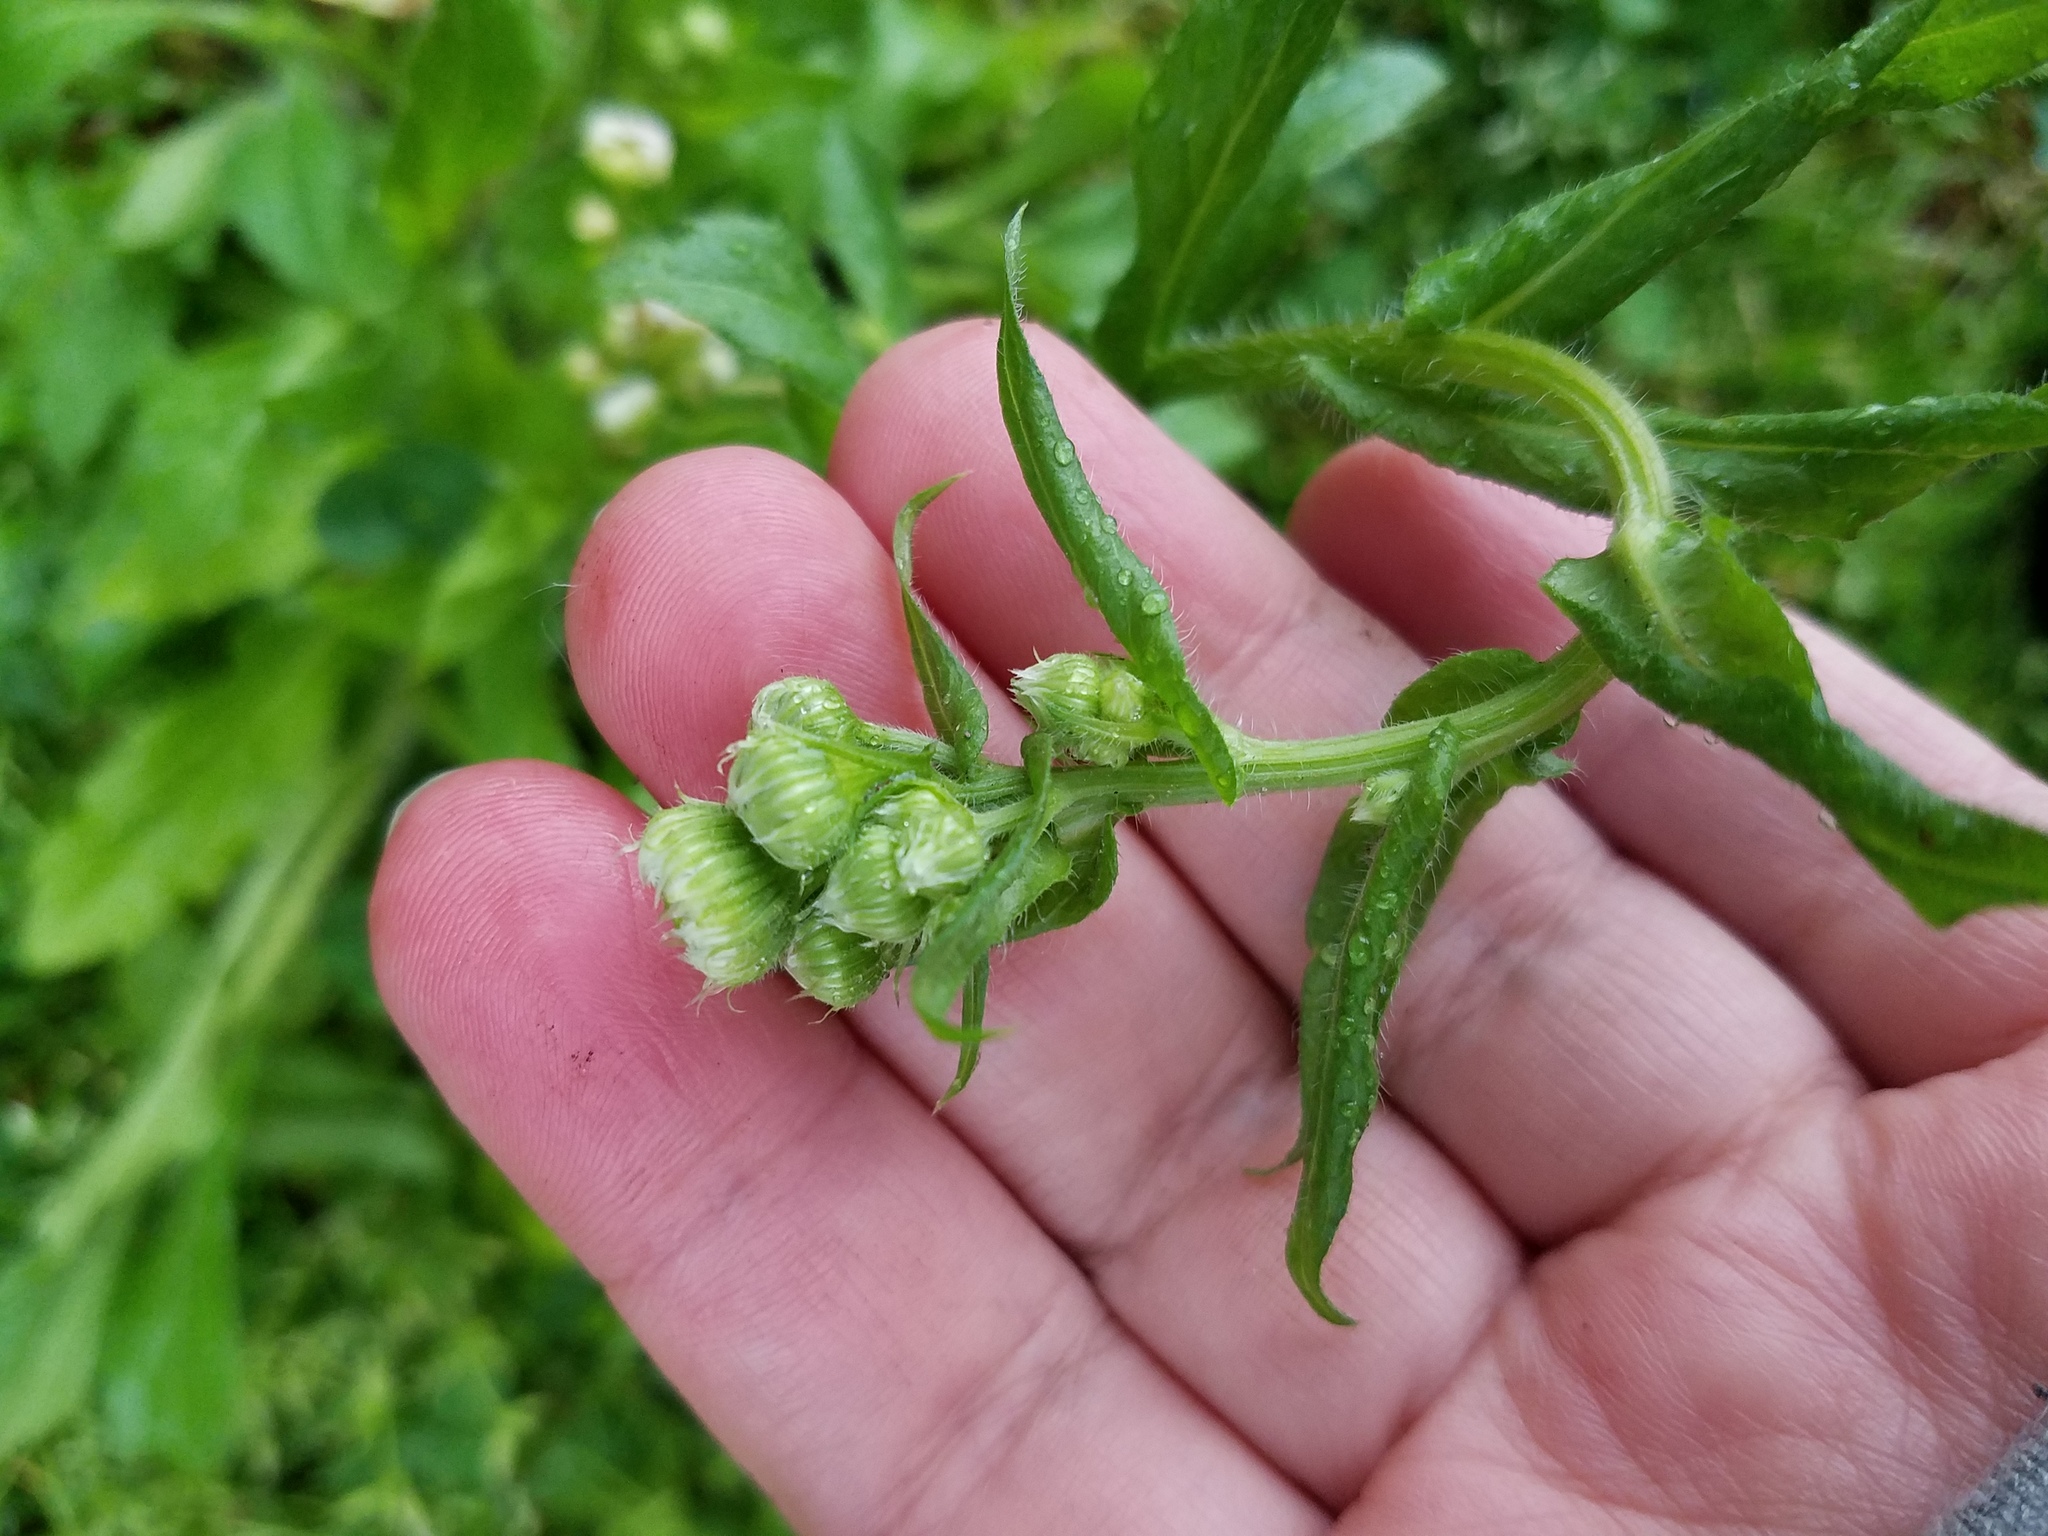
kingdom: Plantae
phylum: Tracheophyta
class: Magnoliopsida
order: Asterales
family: Asteraceae
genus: Erigeron
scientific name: Erigeron philadelphicus
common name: Robin's-plantain
